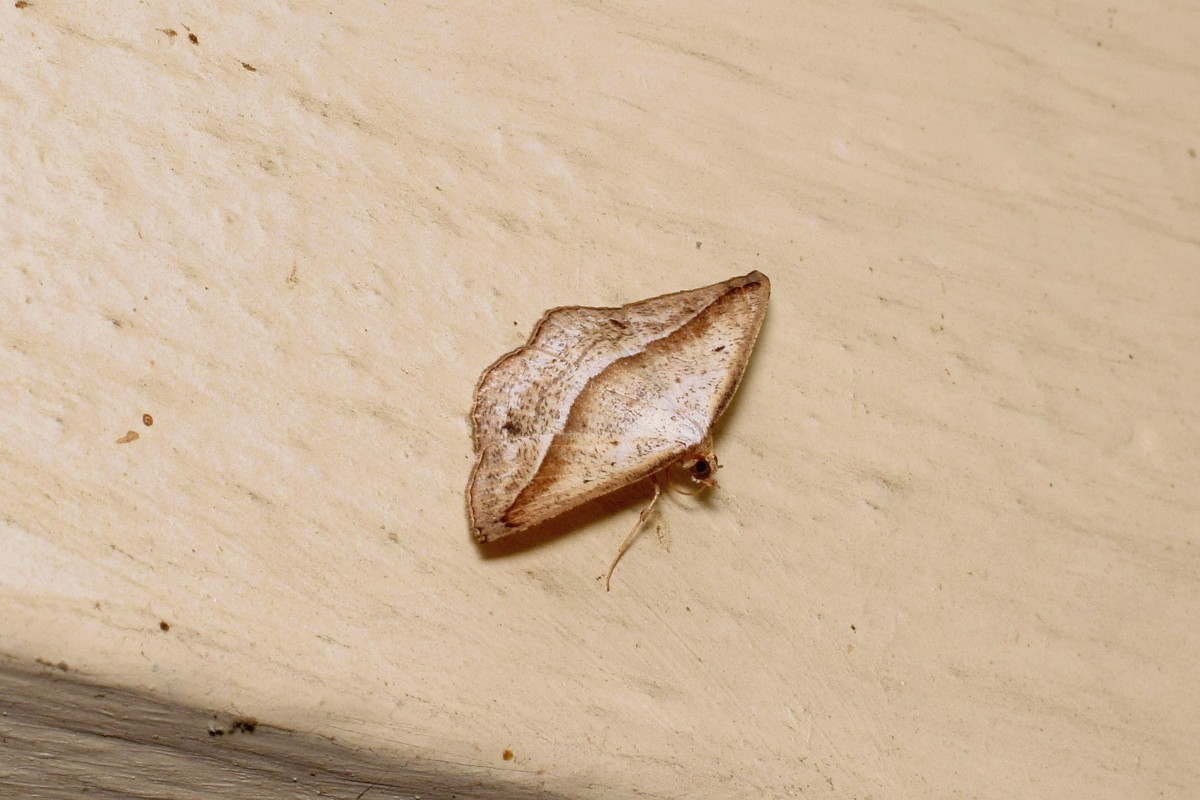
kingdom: Animalia
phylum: Arthropoda
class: Insecta
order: Lepidoptera
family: Geometridae
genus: Nadagara
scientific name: Nadagara vigaia
